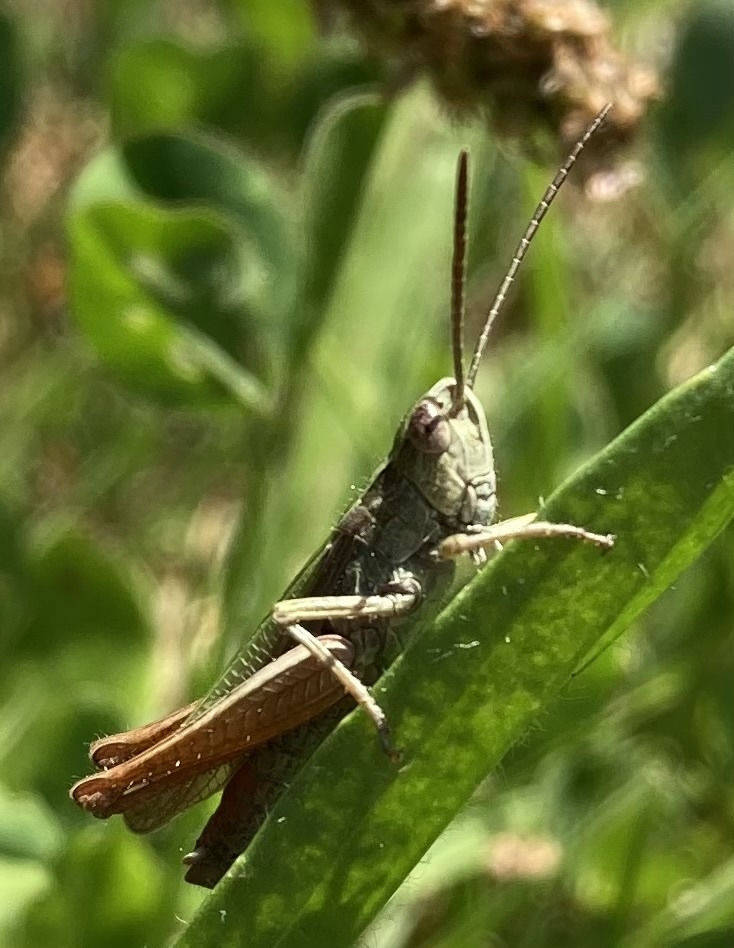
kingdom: Animalia
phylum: Arthropoda
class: Insecta
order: Orthoptera
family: Acrididae
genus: Chorthippus
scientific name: Chorthippus dorsatus
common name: Steppe grasshopper
